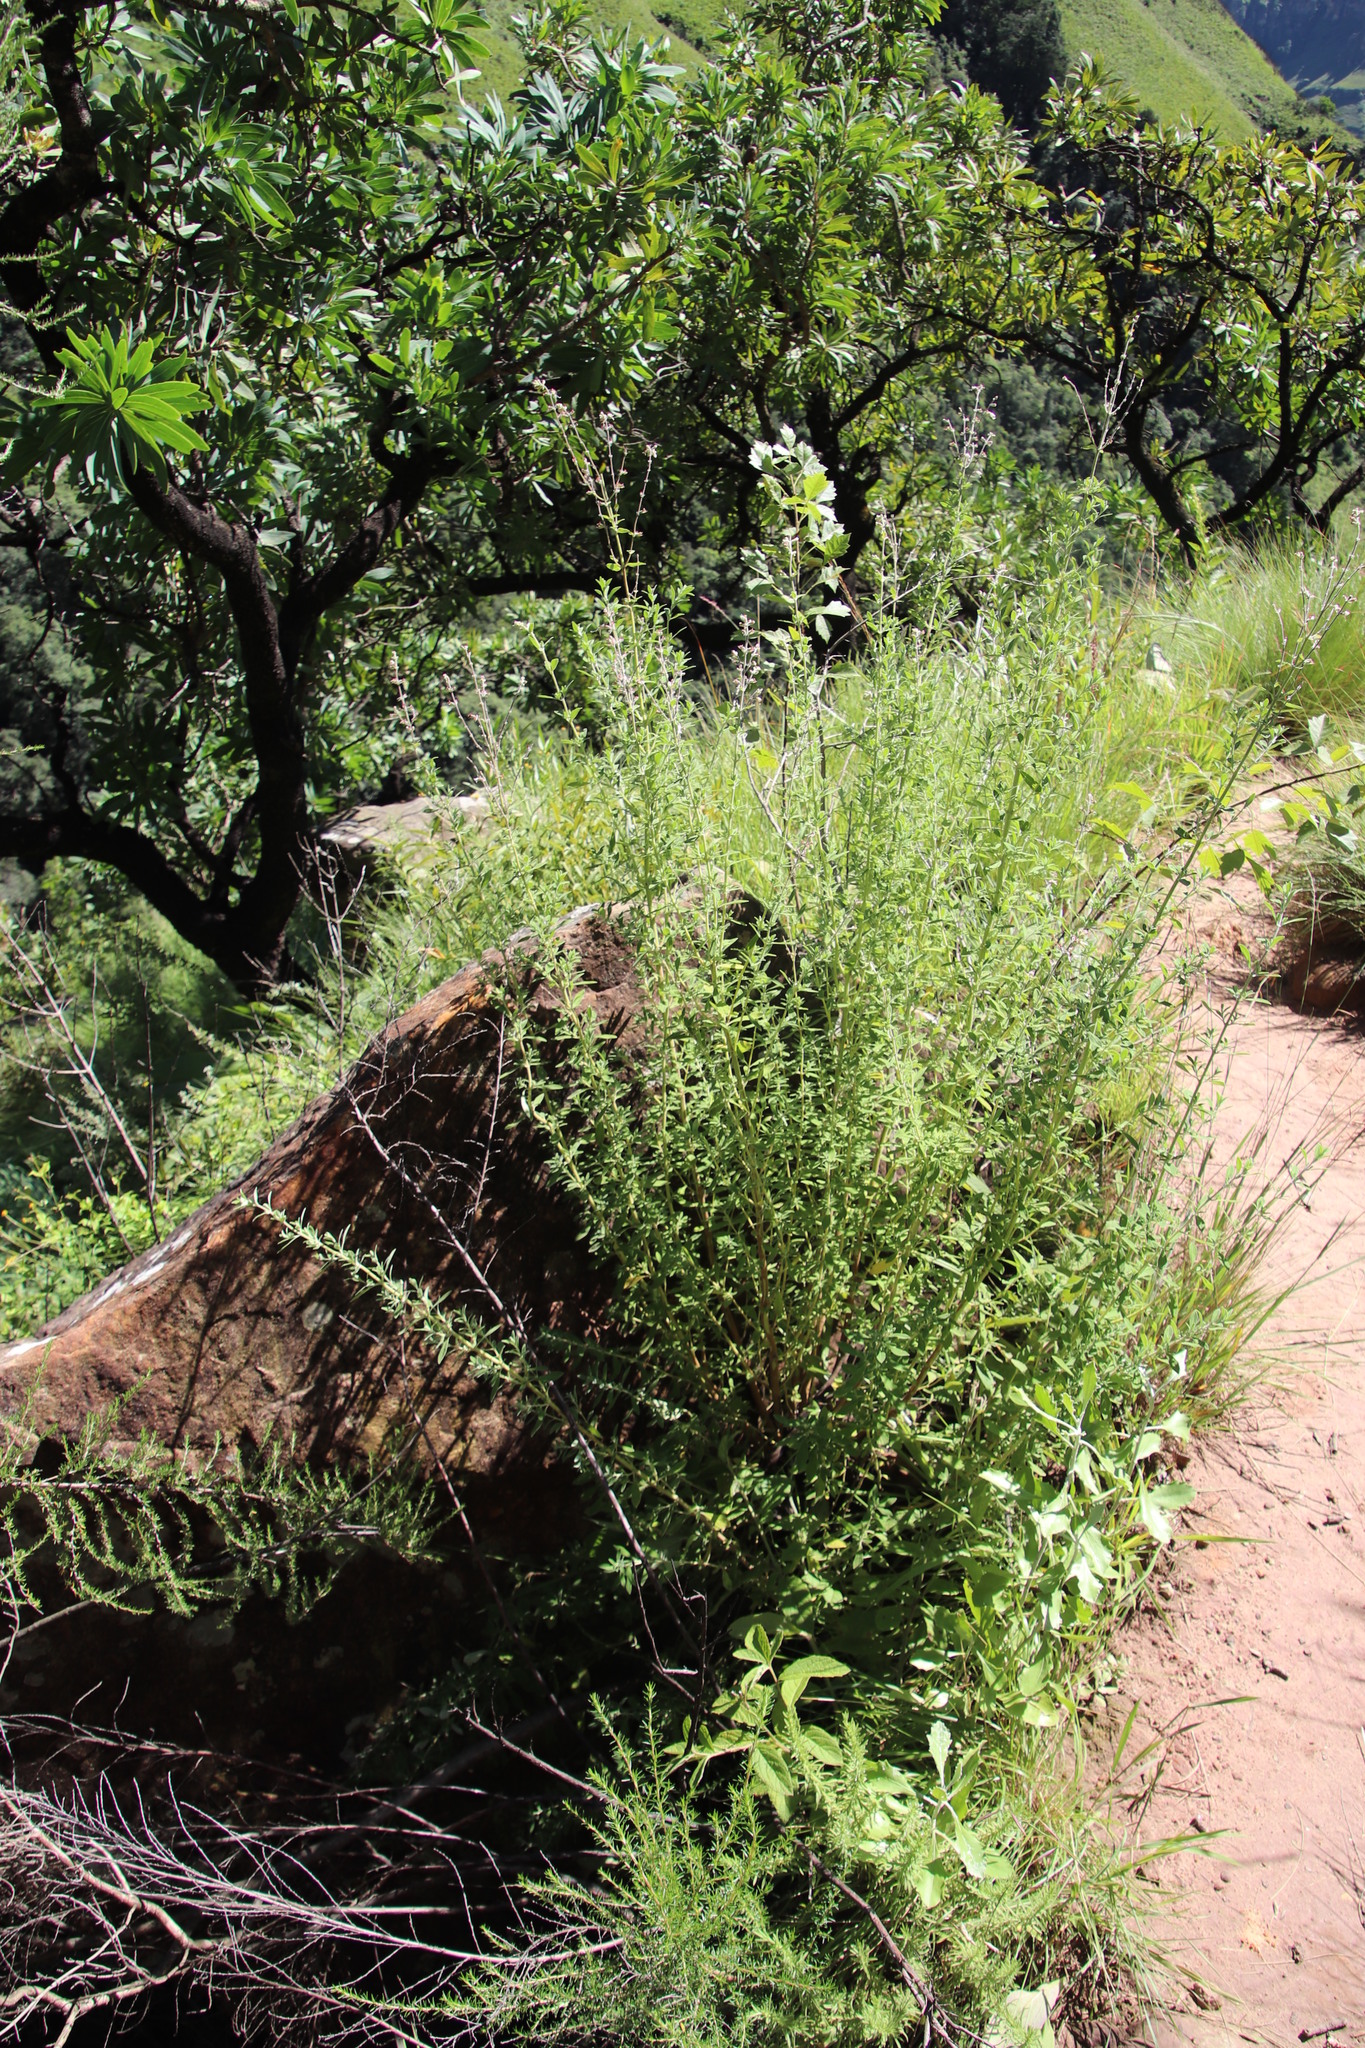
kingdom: Plantae
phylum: Tracheophyta
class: Magnoliopsida
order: Lamiales
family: Lamiaceae
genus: Syncolostemon
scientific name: Syncolostemon cinereum
